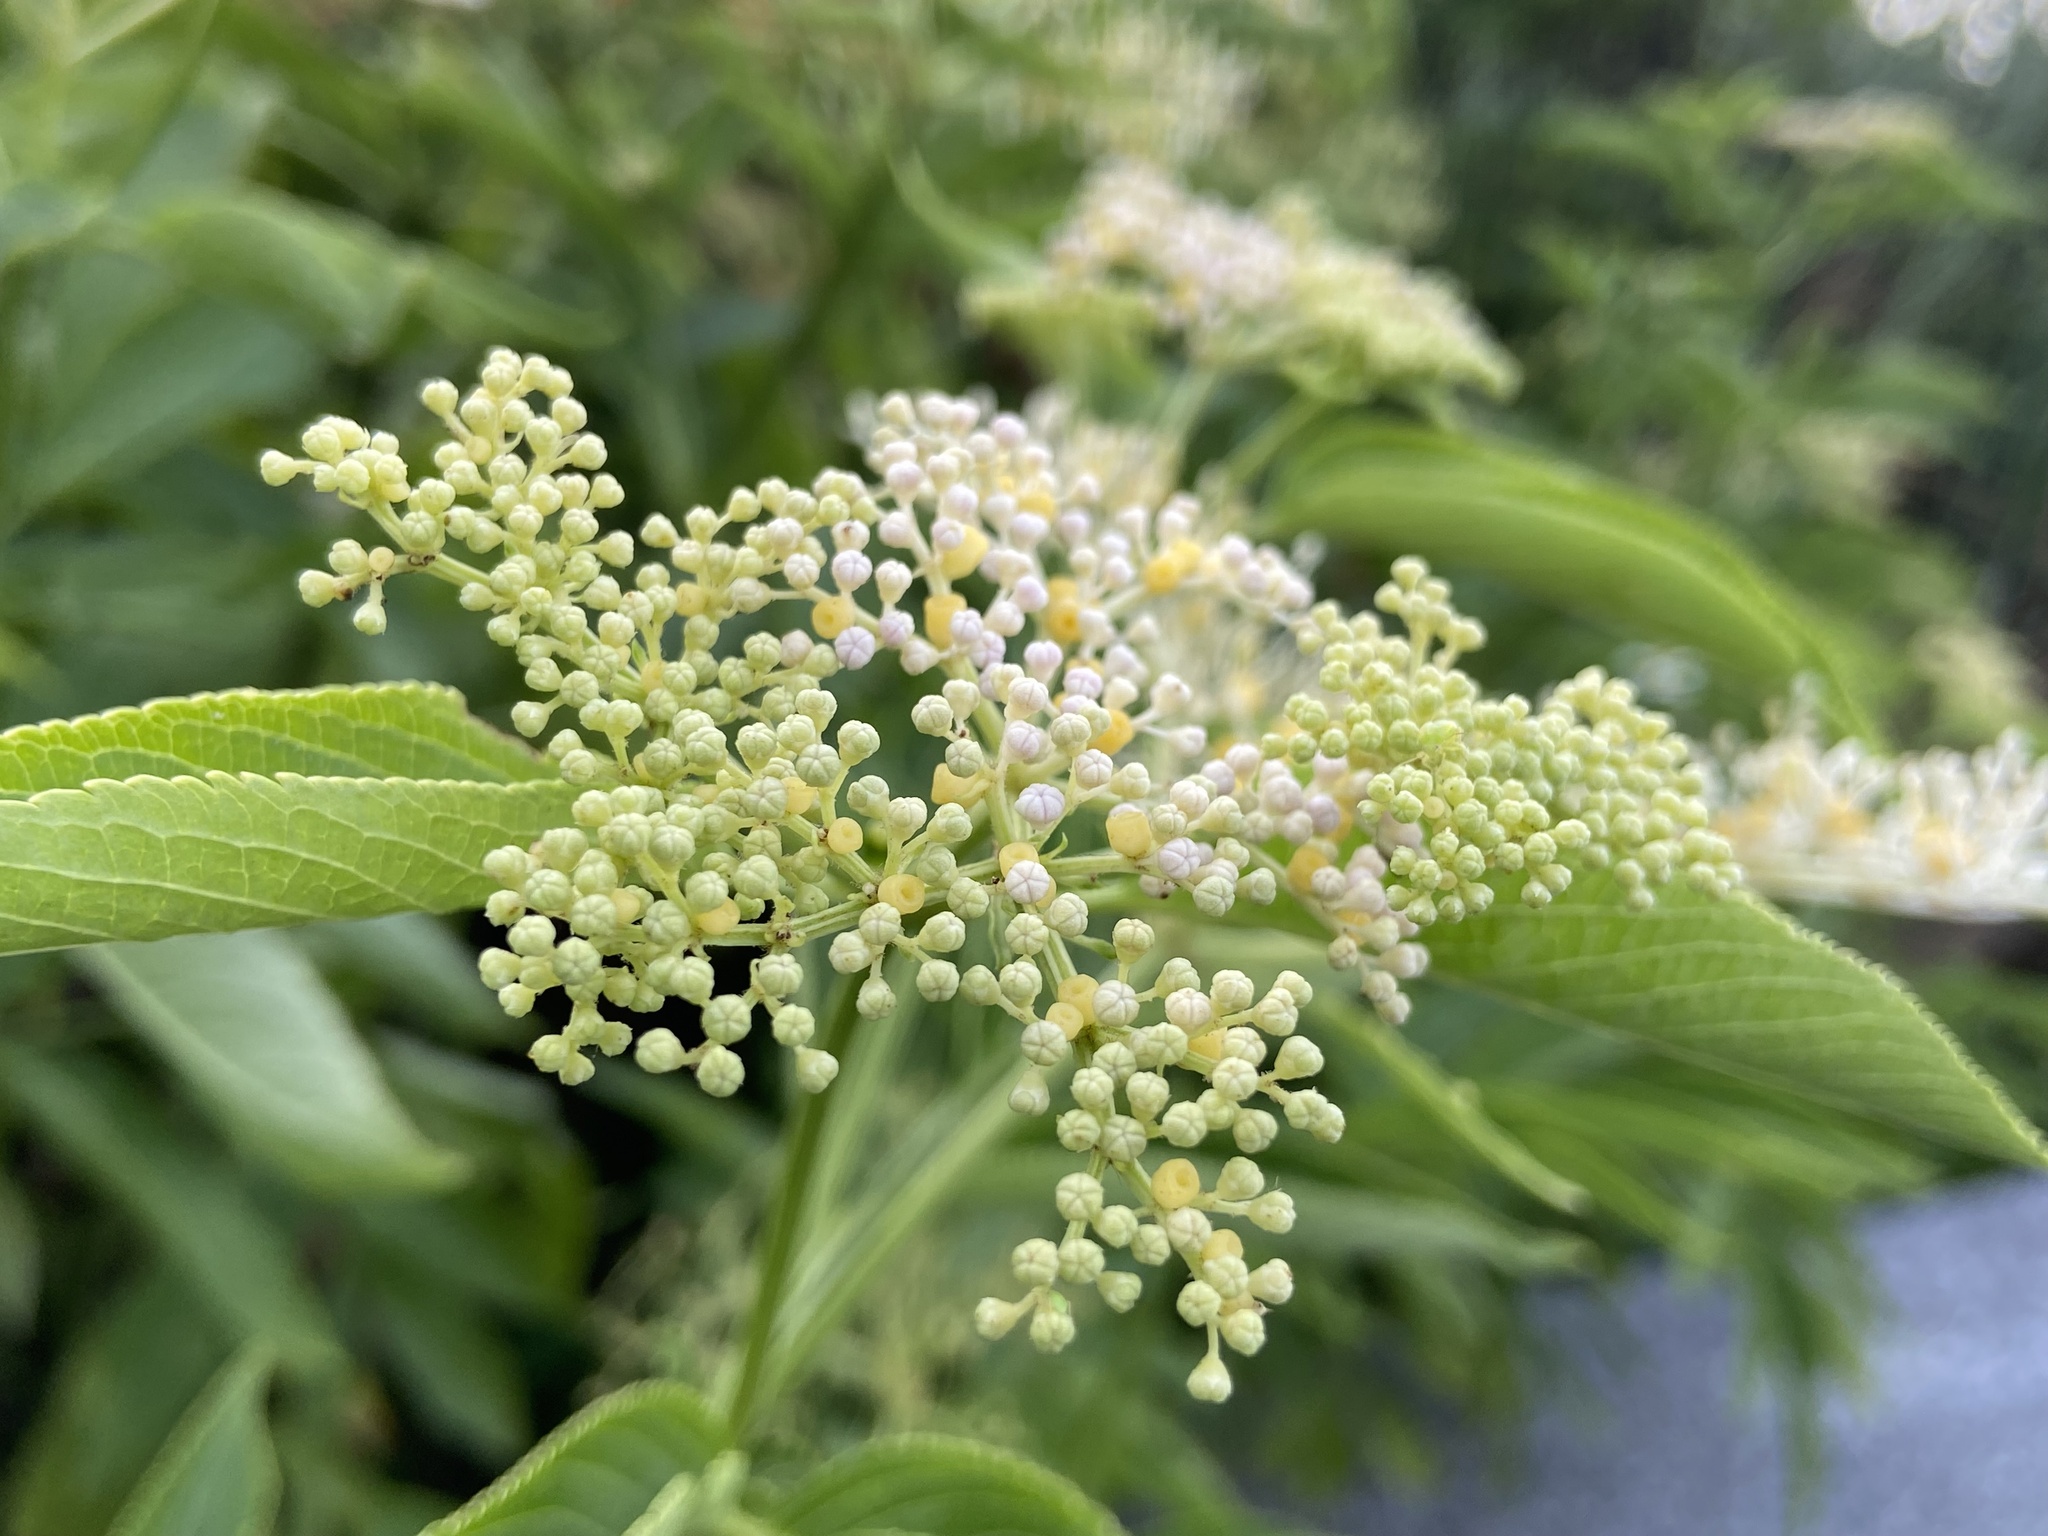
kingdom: Plantae
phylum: Tracheophyta
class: Magnoliopsida
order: Dipsacales
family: Viburnaceae
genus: Sambucus
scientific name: Sambucus javanica
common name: Chinese elder
